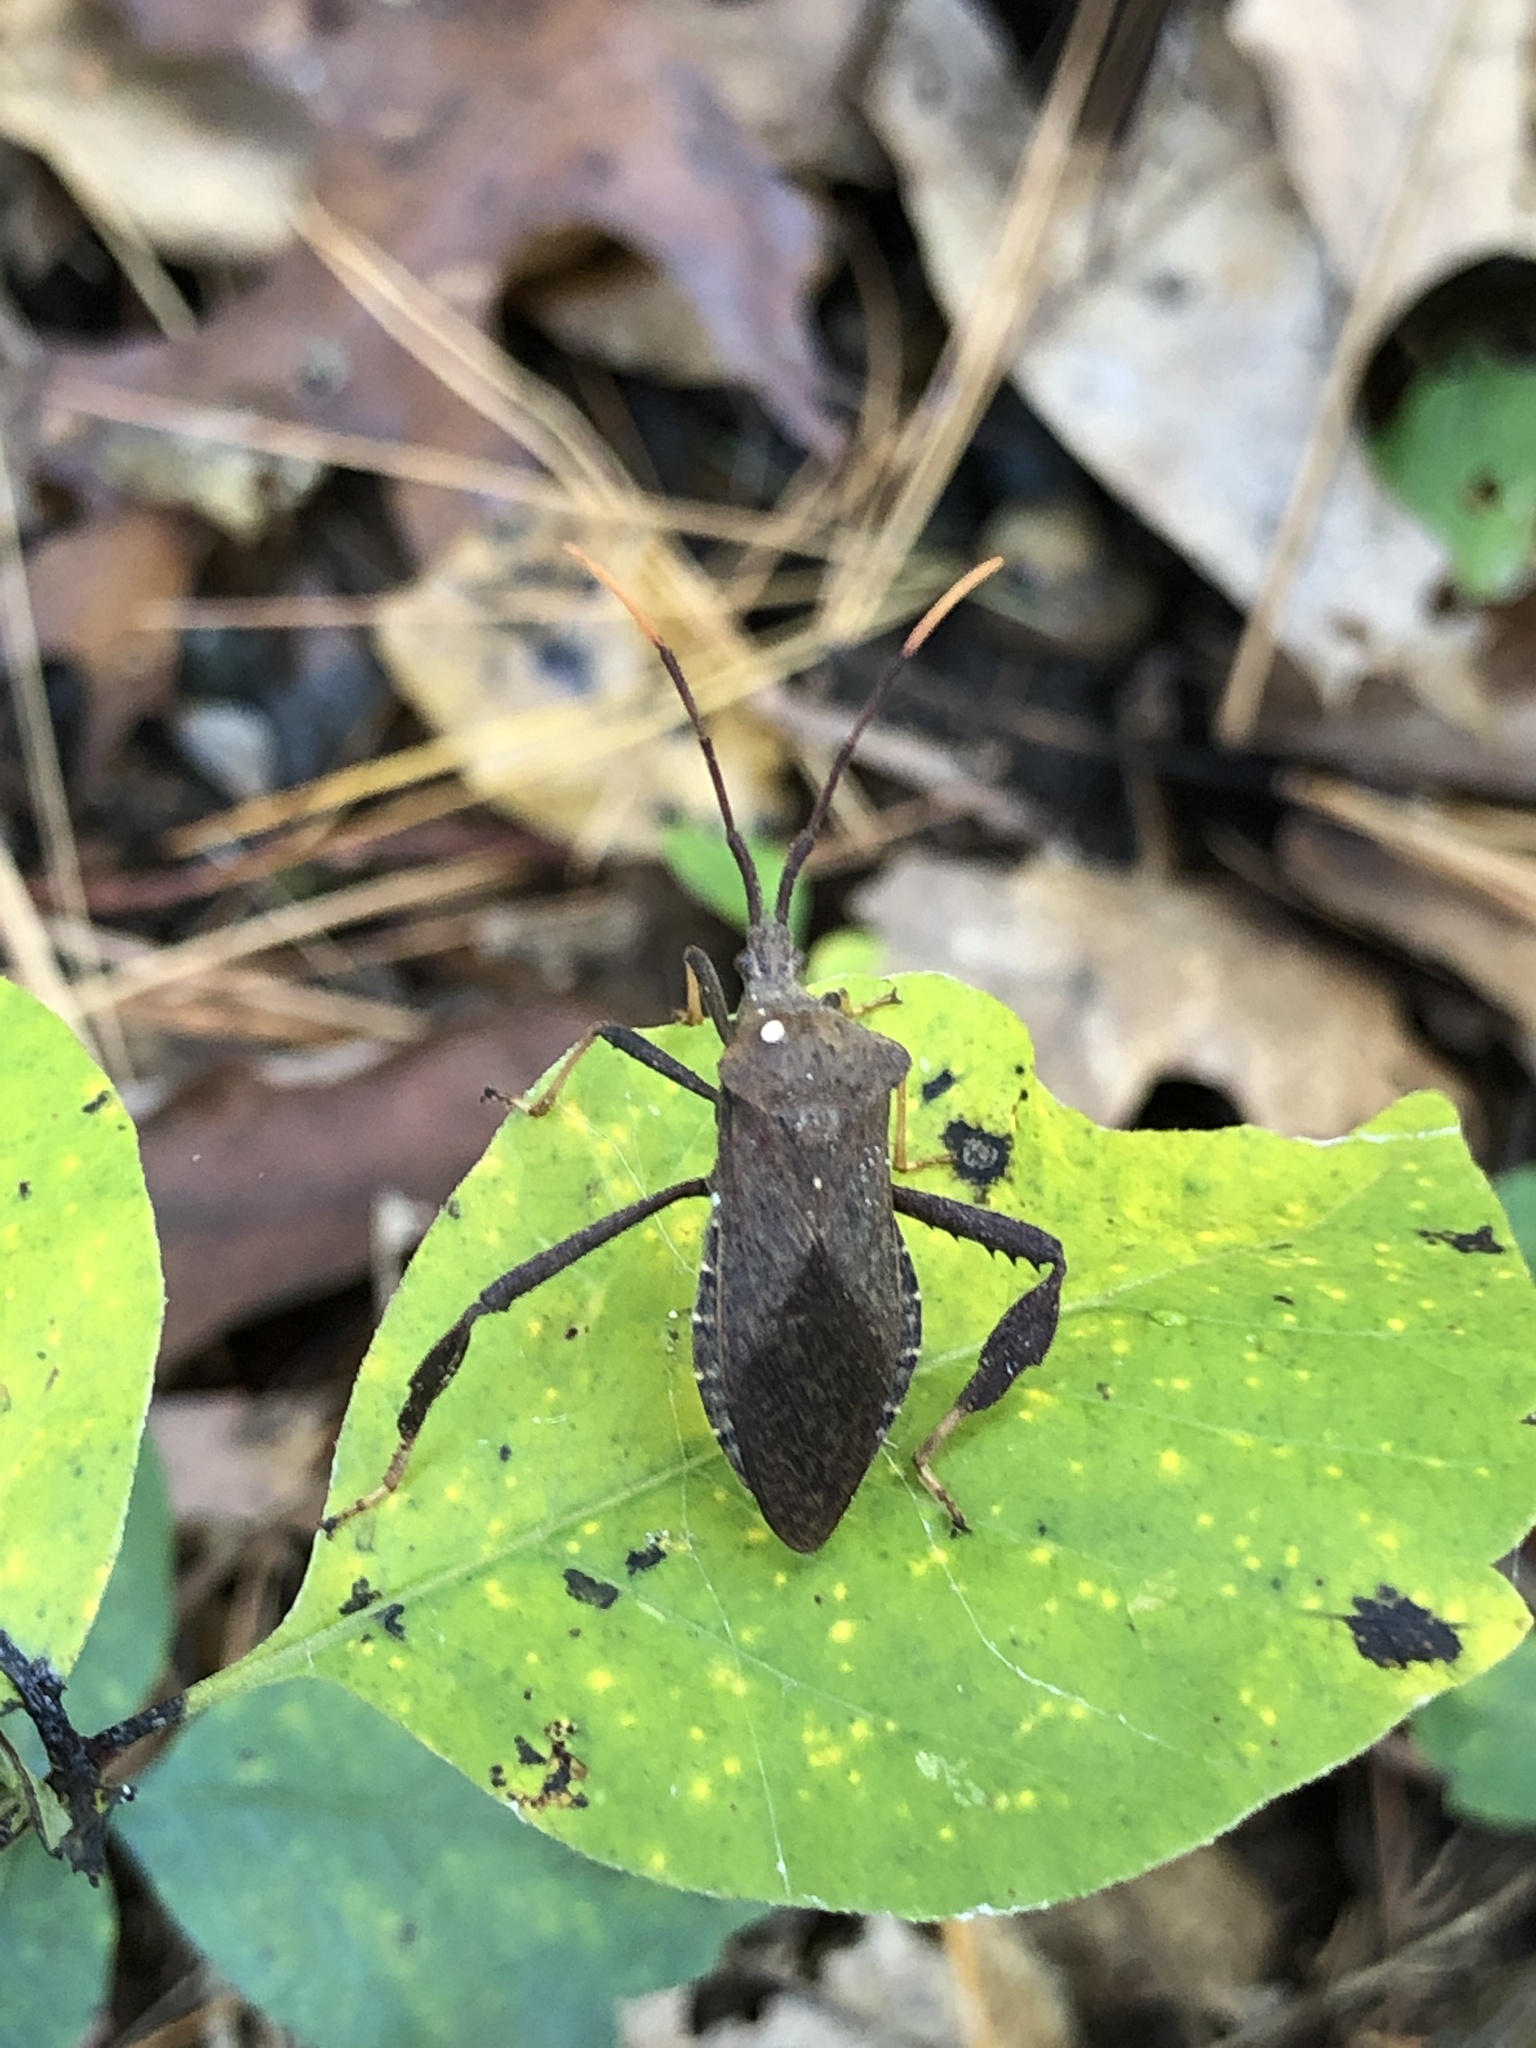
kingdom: Animalia
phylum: Arthropoda
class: Insecta
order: Hemiptera
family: Coreidae
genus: Acanthocephala
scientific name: Acanthocephala terminalis
